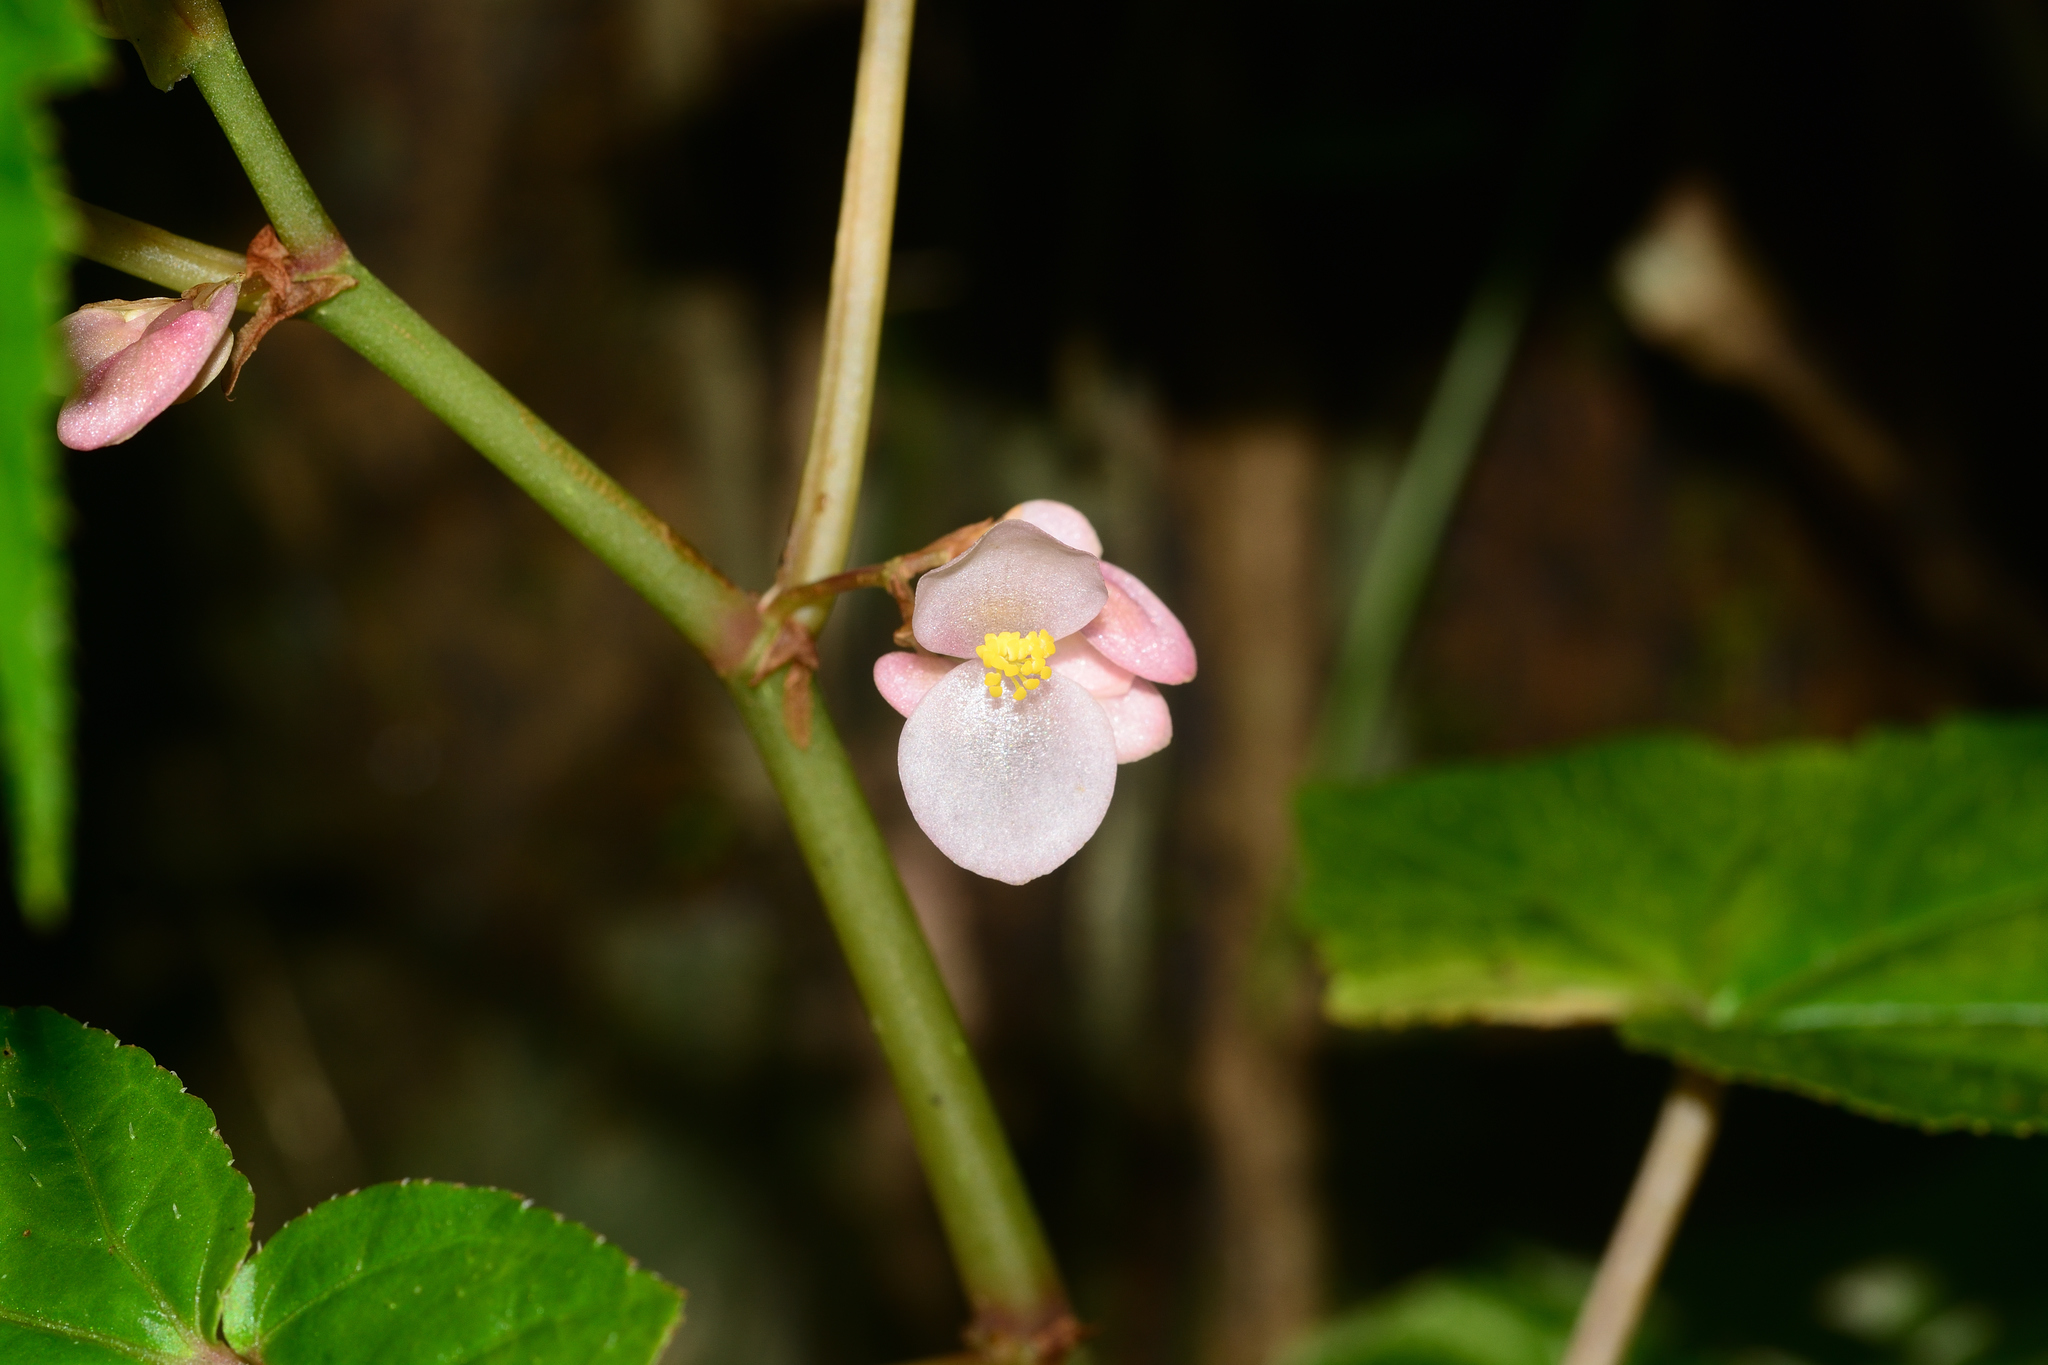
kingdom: Plantae
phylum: Tracheophyta
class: Magnoliopsida
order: Cucurbitales
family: Begoniaceae
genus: Begonia
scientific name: Begonia dipetala
